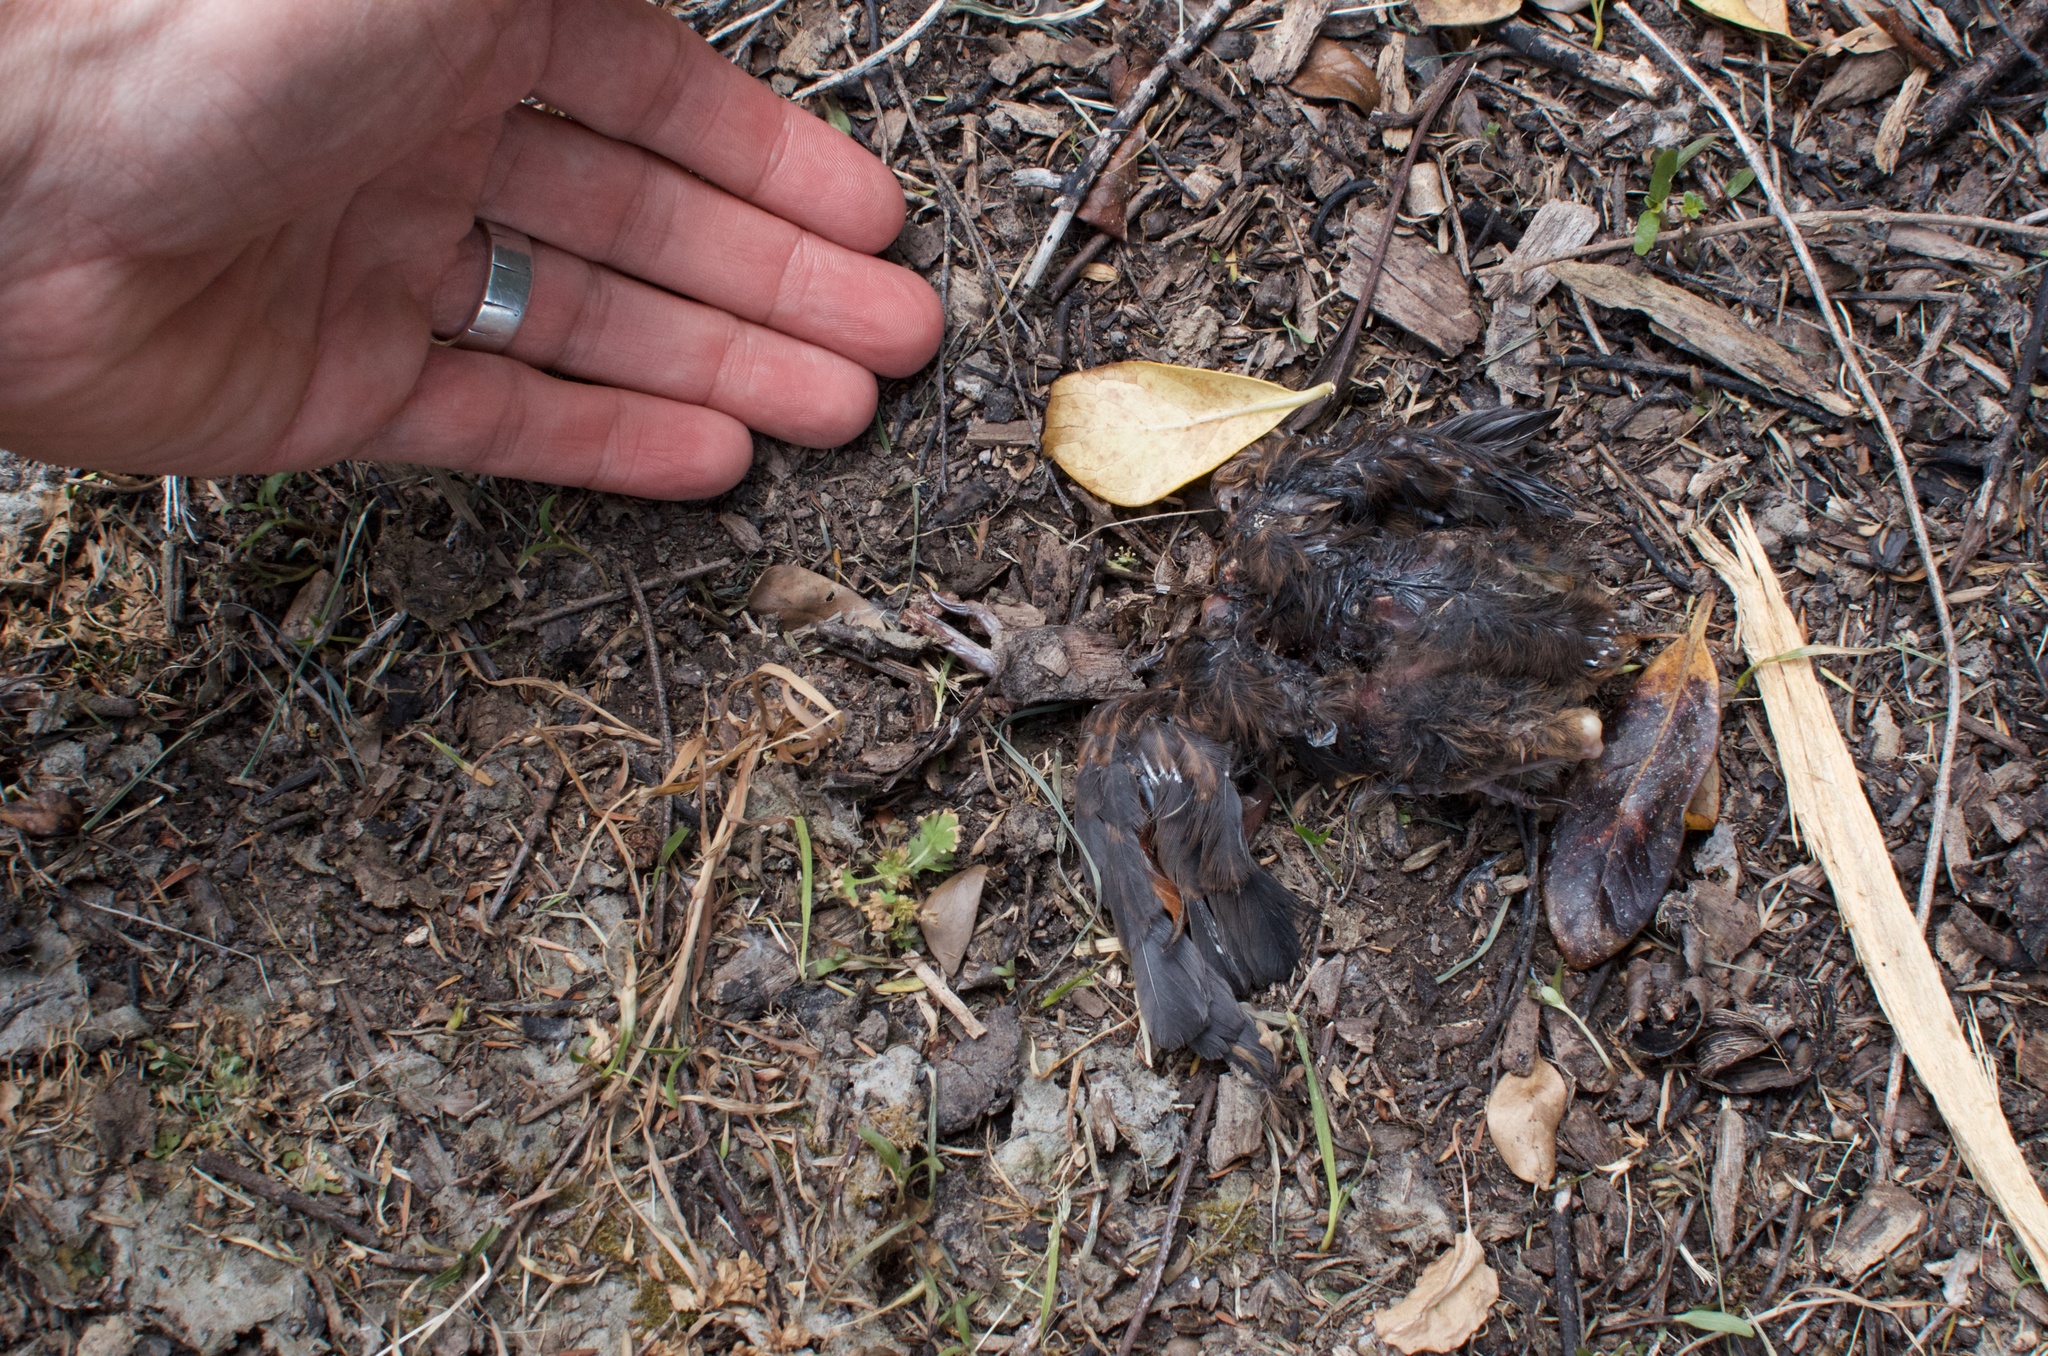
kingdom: Animalia
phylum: Chordata
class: Aves
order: Passeriformes
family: Turdidae
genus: Turdus
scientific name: Turdus merula
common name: Common blackbird
